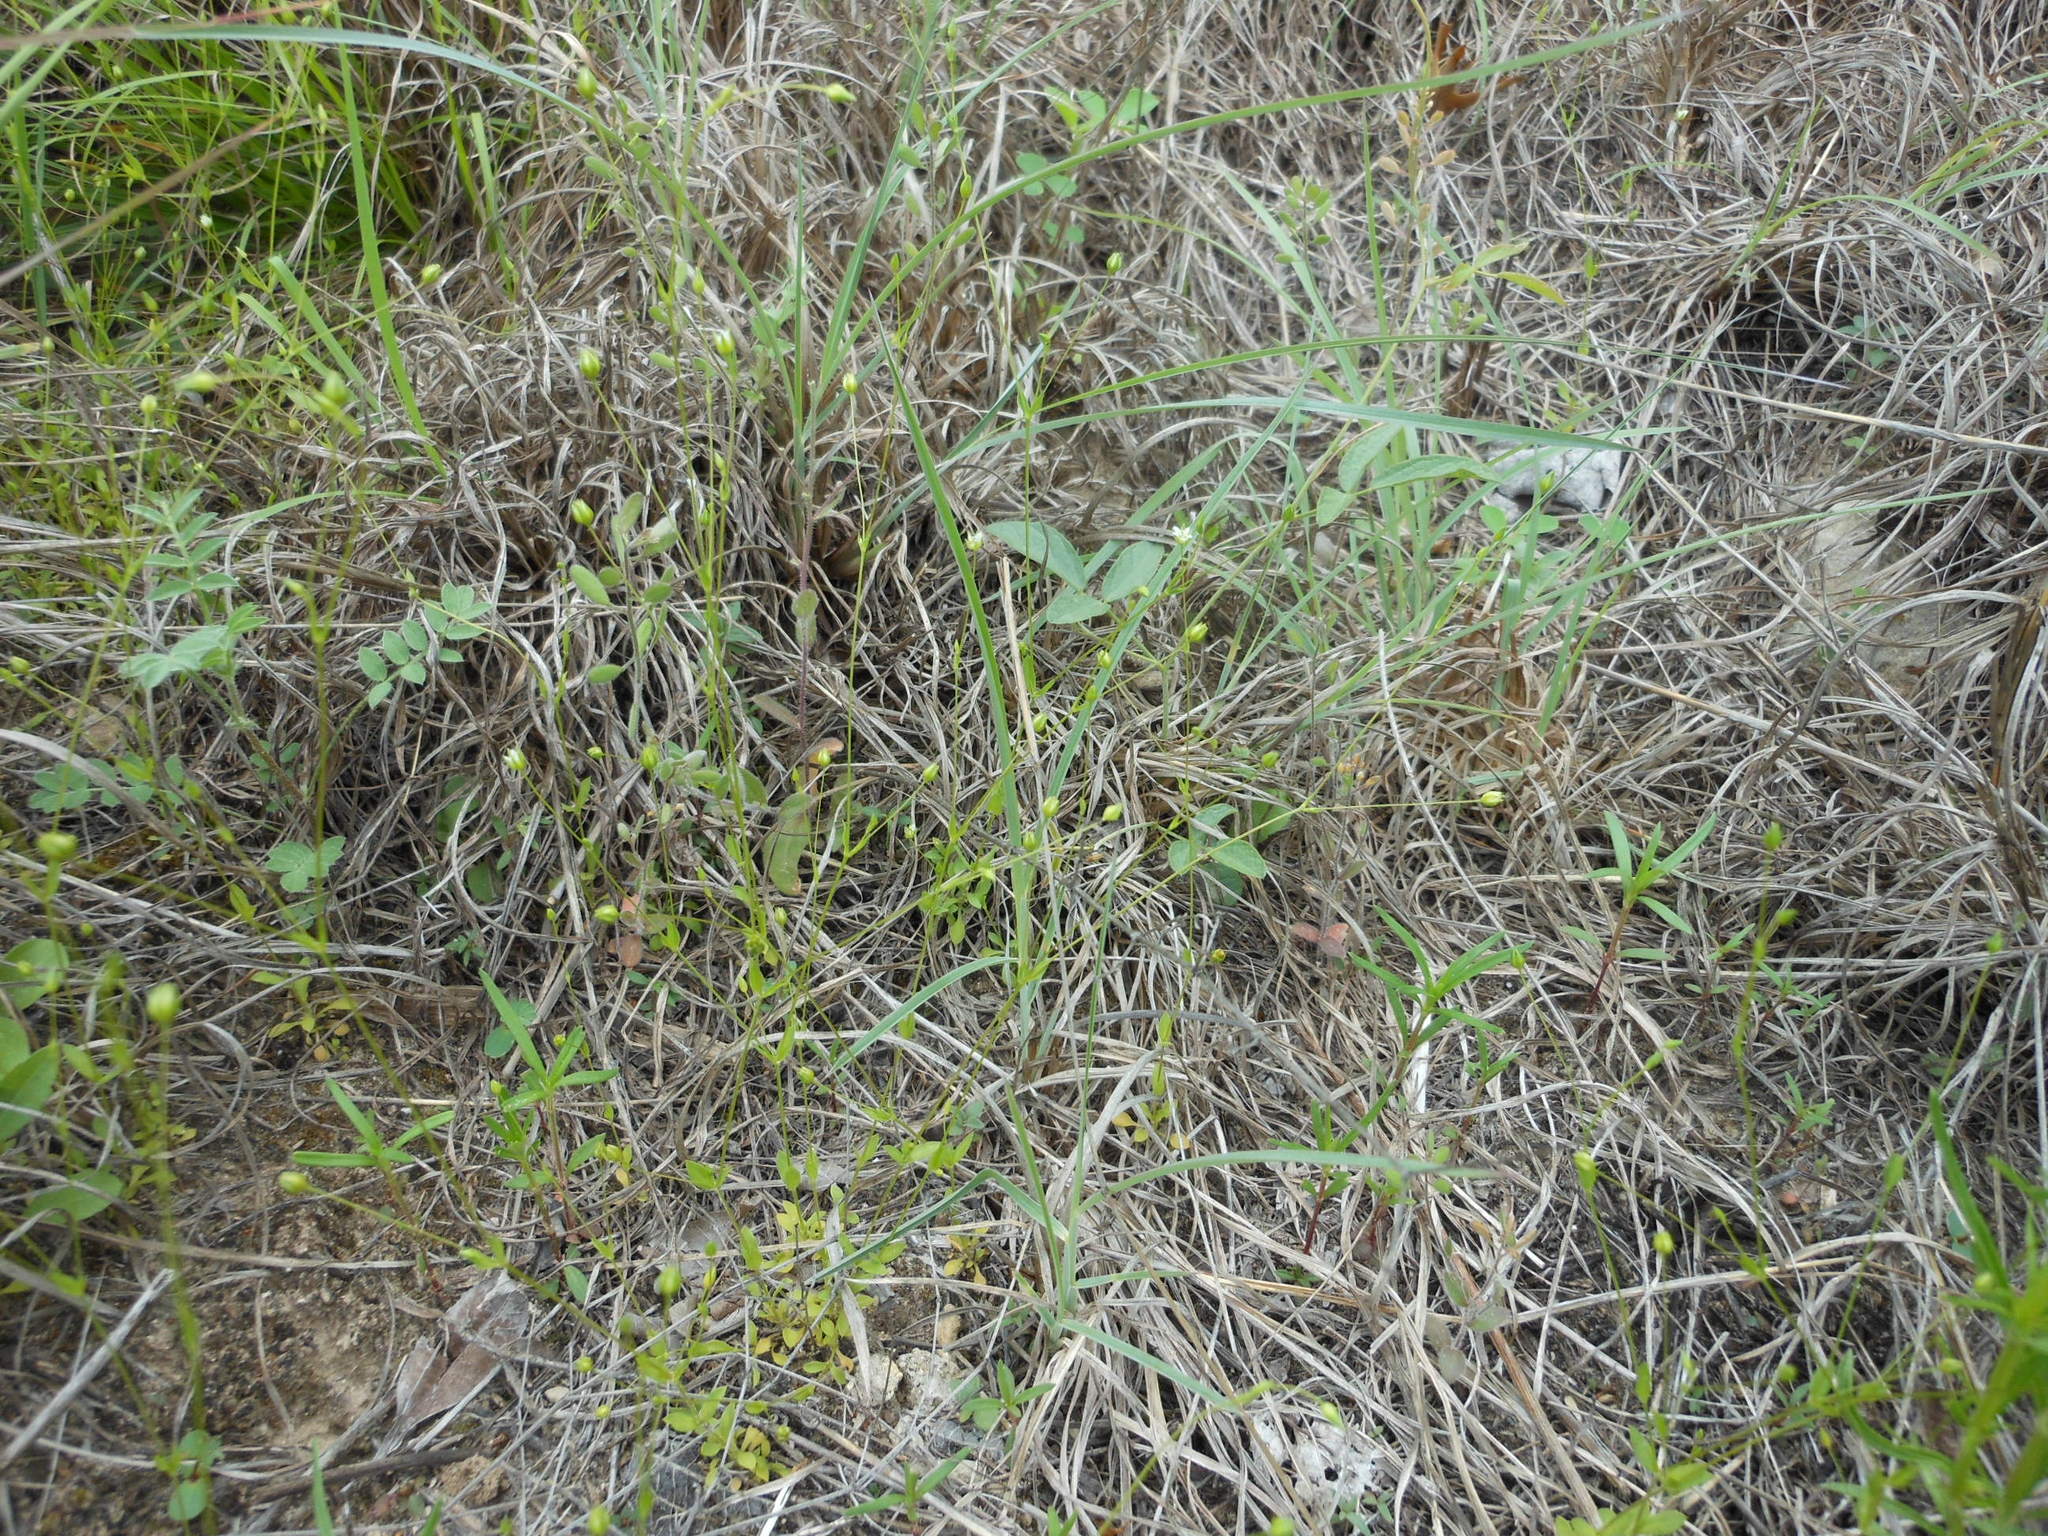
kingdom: Plantae
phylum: Tracheophyta
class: Magnoliopsida
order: Caryophyllales
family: Caryophyllaceae
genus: Arenaria
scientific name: Arenaria benthamii
